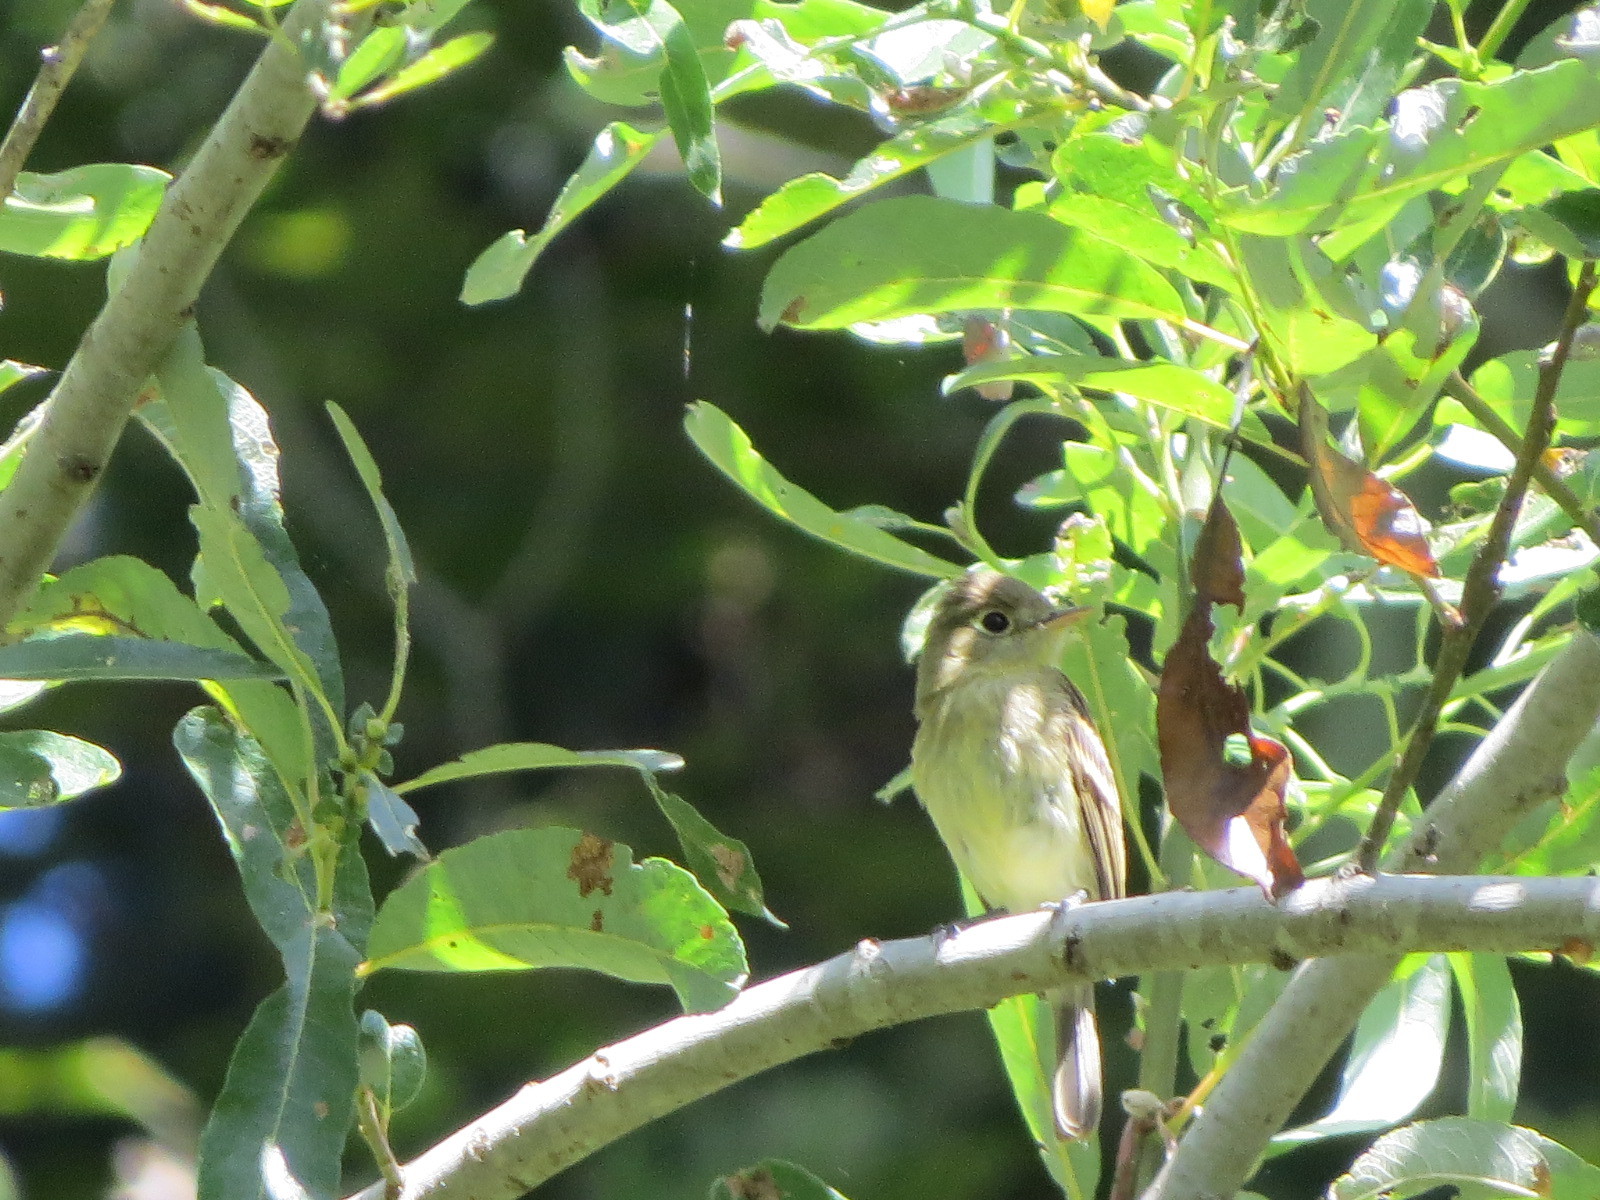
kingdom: Animalia
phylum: Chordata
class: Aves
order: Passeriformes
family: Tyrannidae
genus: Empidonax
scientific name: Empidonax difficilis
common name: Pacific-slope flycatcher
